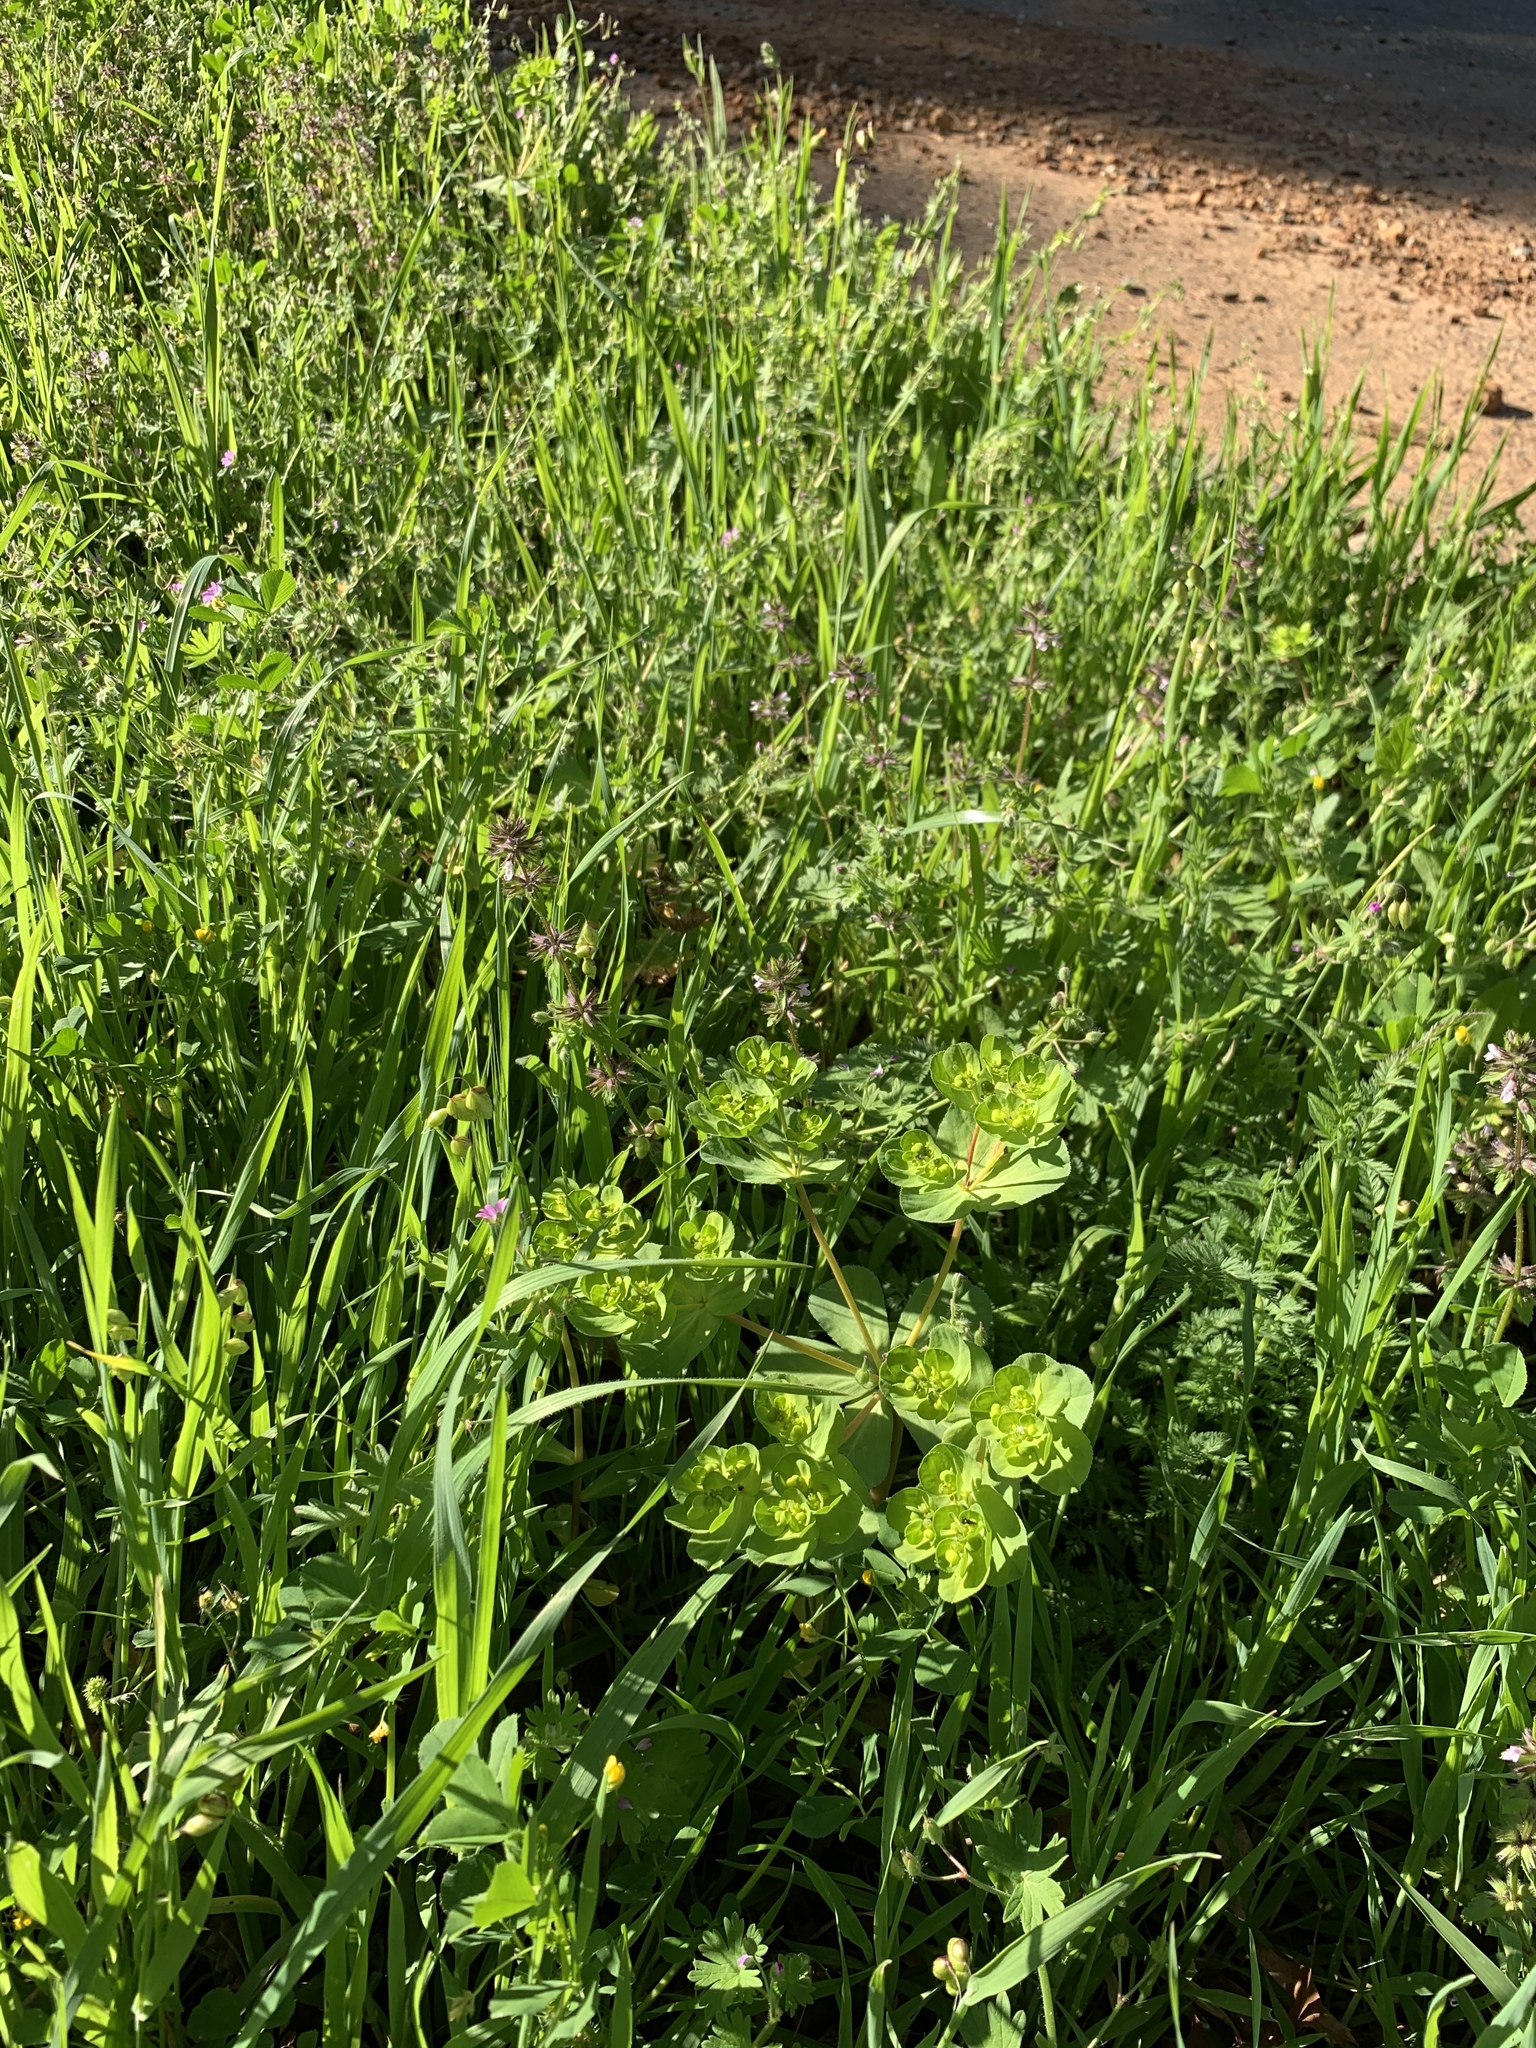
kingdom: Plantae
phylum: Tracheophyta
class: Magnoliopsida
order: Malpighiales
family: Euphorbiaceae
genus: Euphorbia
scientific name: Euphorbia helioscopia
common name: Sun spurge
